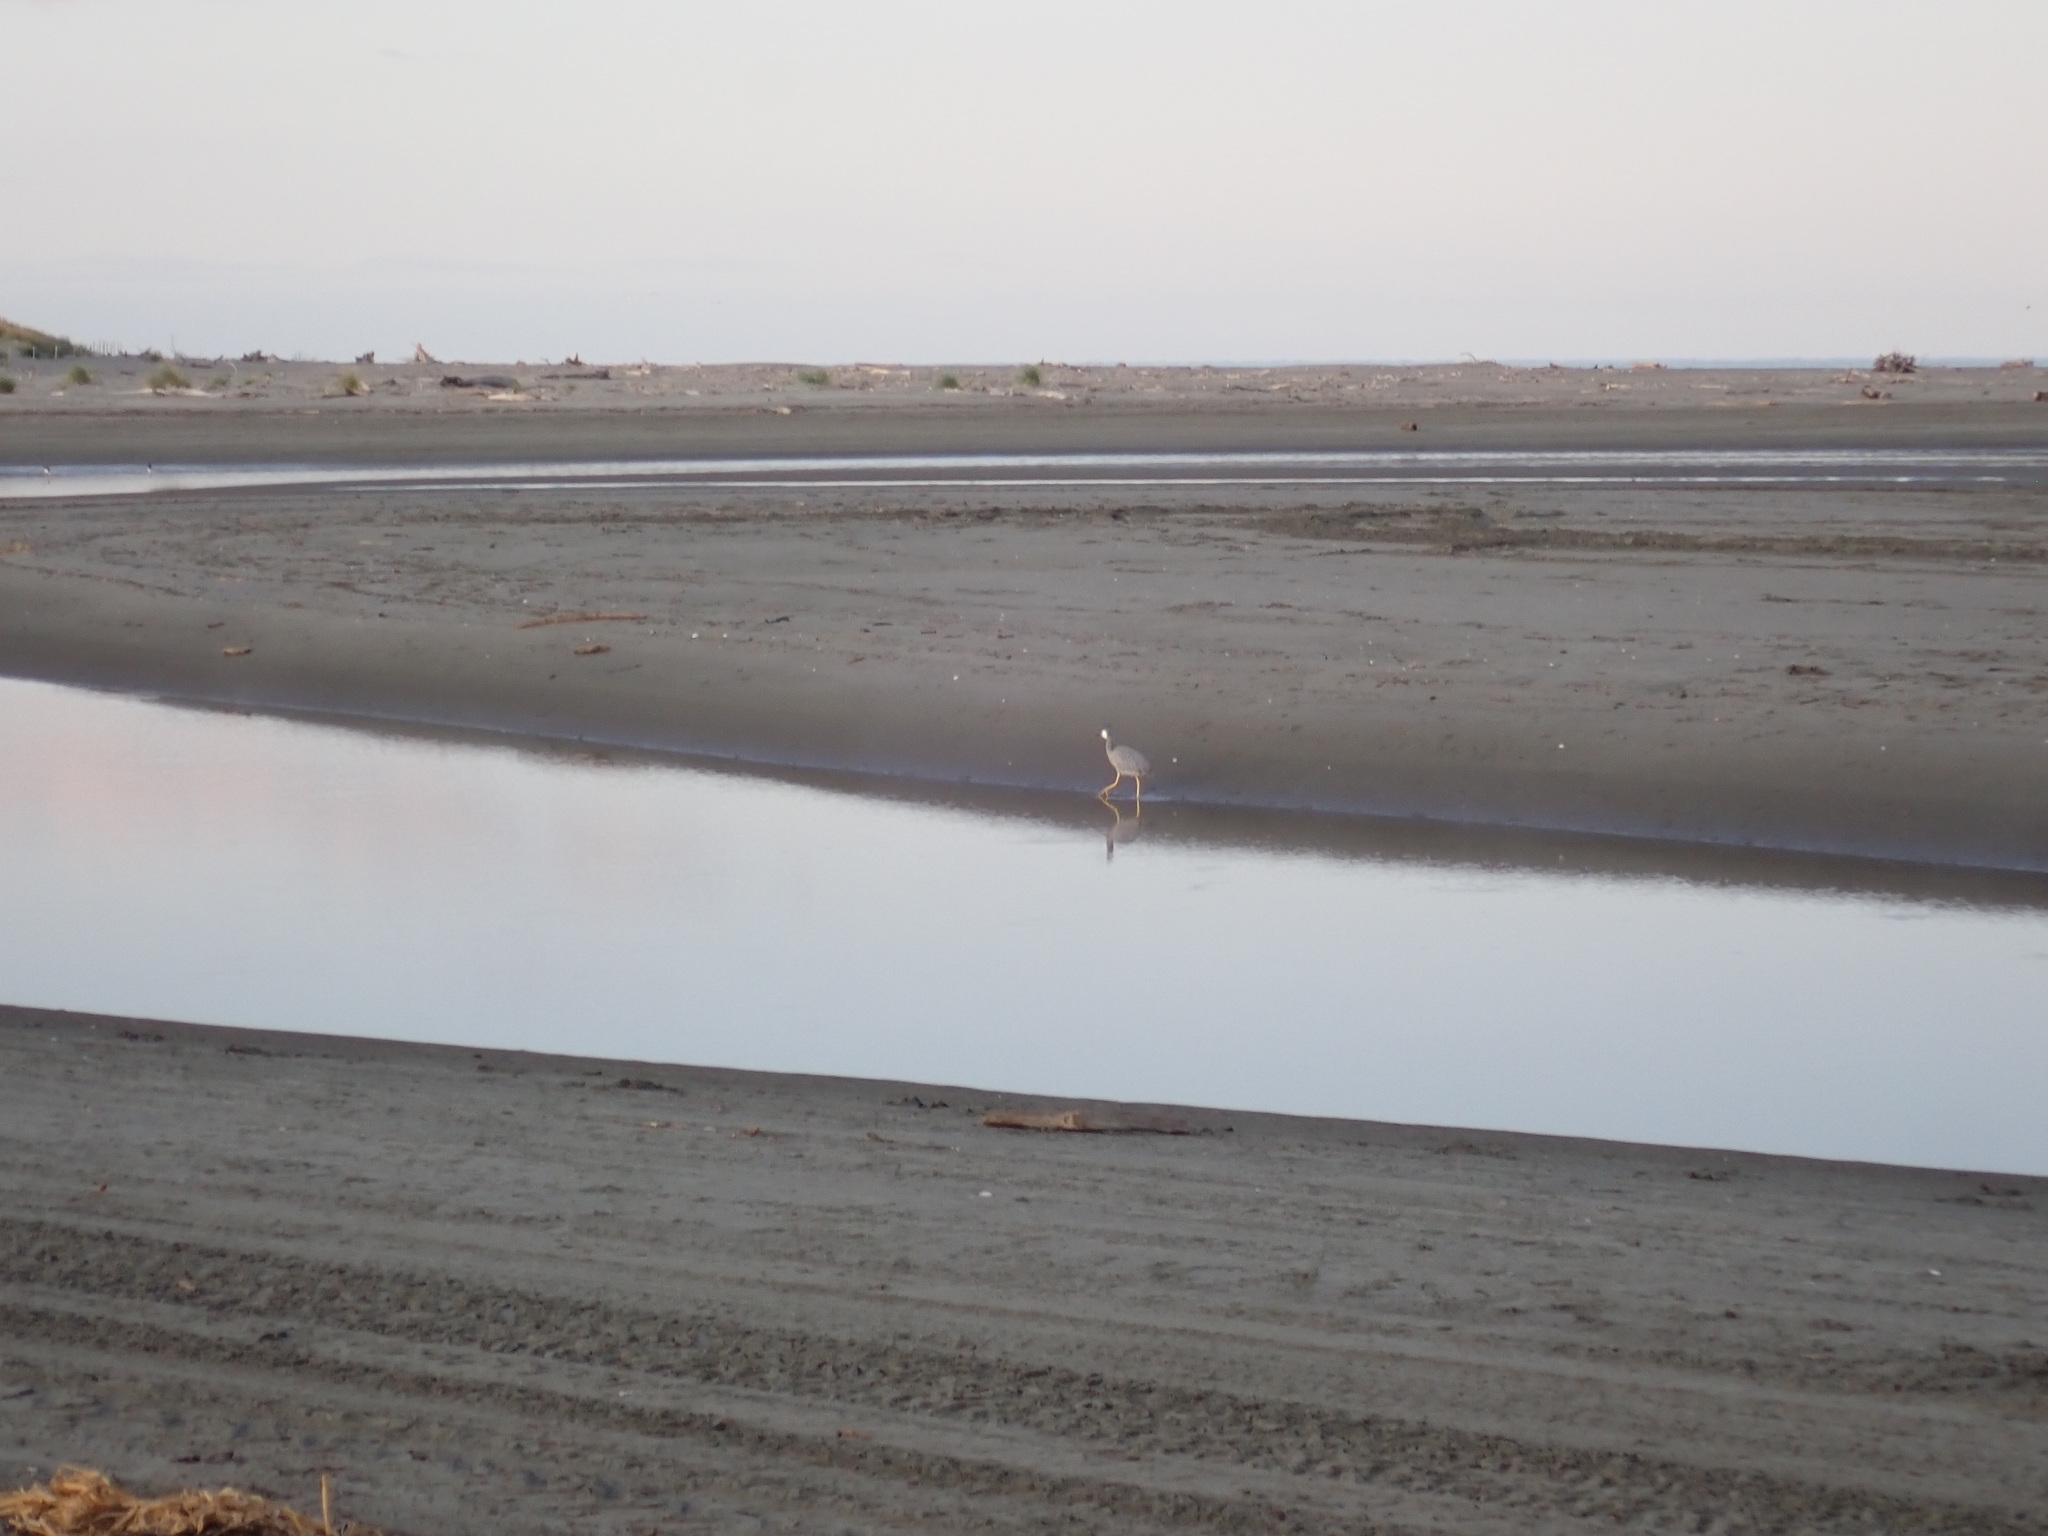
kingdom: Animalia
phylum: Chordata
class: Aves
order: Pelecaniformes
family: Ardeidae
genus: Egretta
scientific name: Egretta novaehollandiae
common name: White-faced heron
